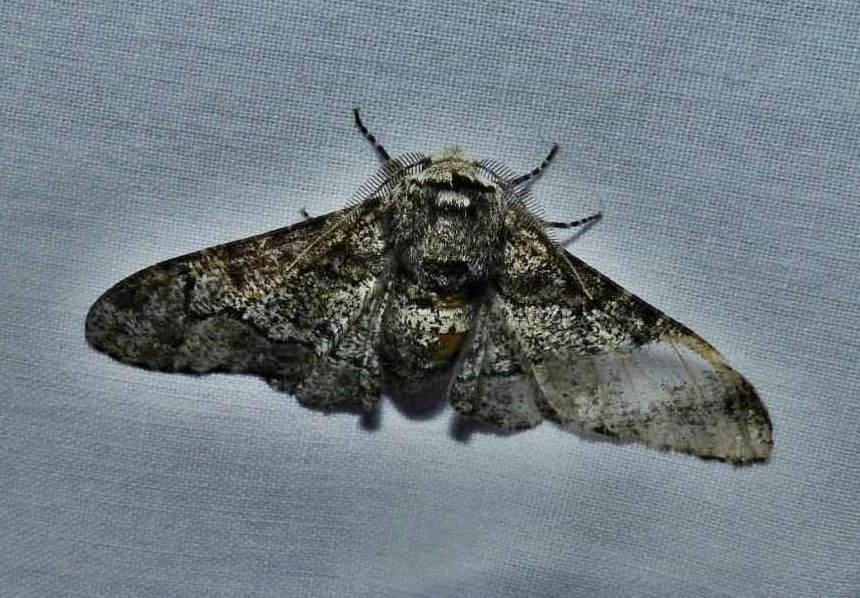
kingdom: Animalia
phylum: Arthropoda
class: Insecta
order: Lepidoptera
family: Geometridae
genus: Biston
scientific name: Biston betularia
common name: Peppered moth
